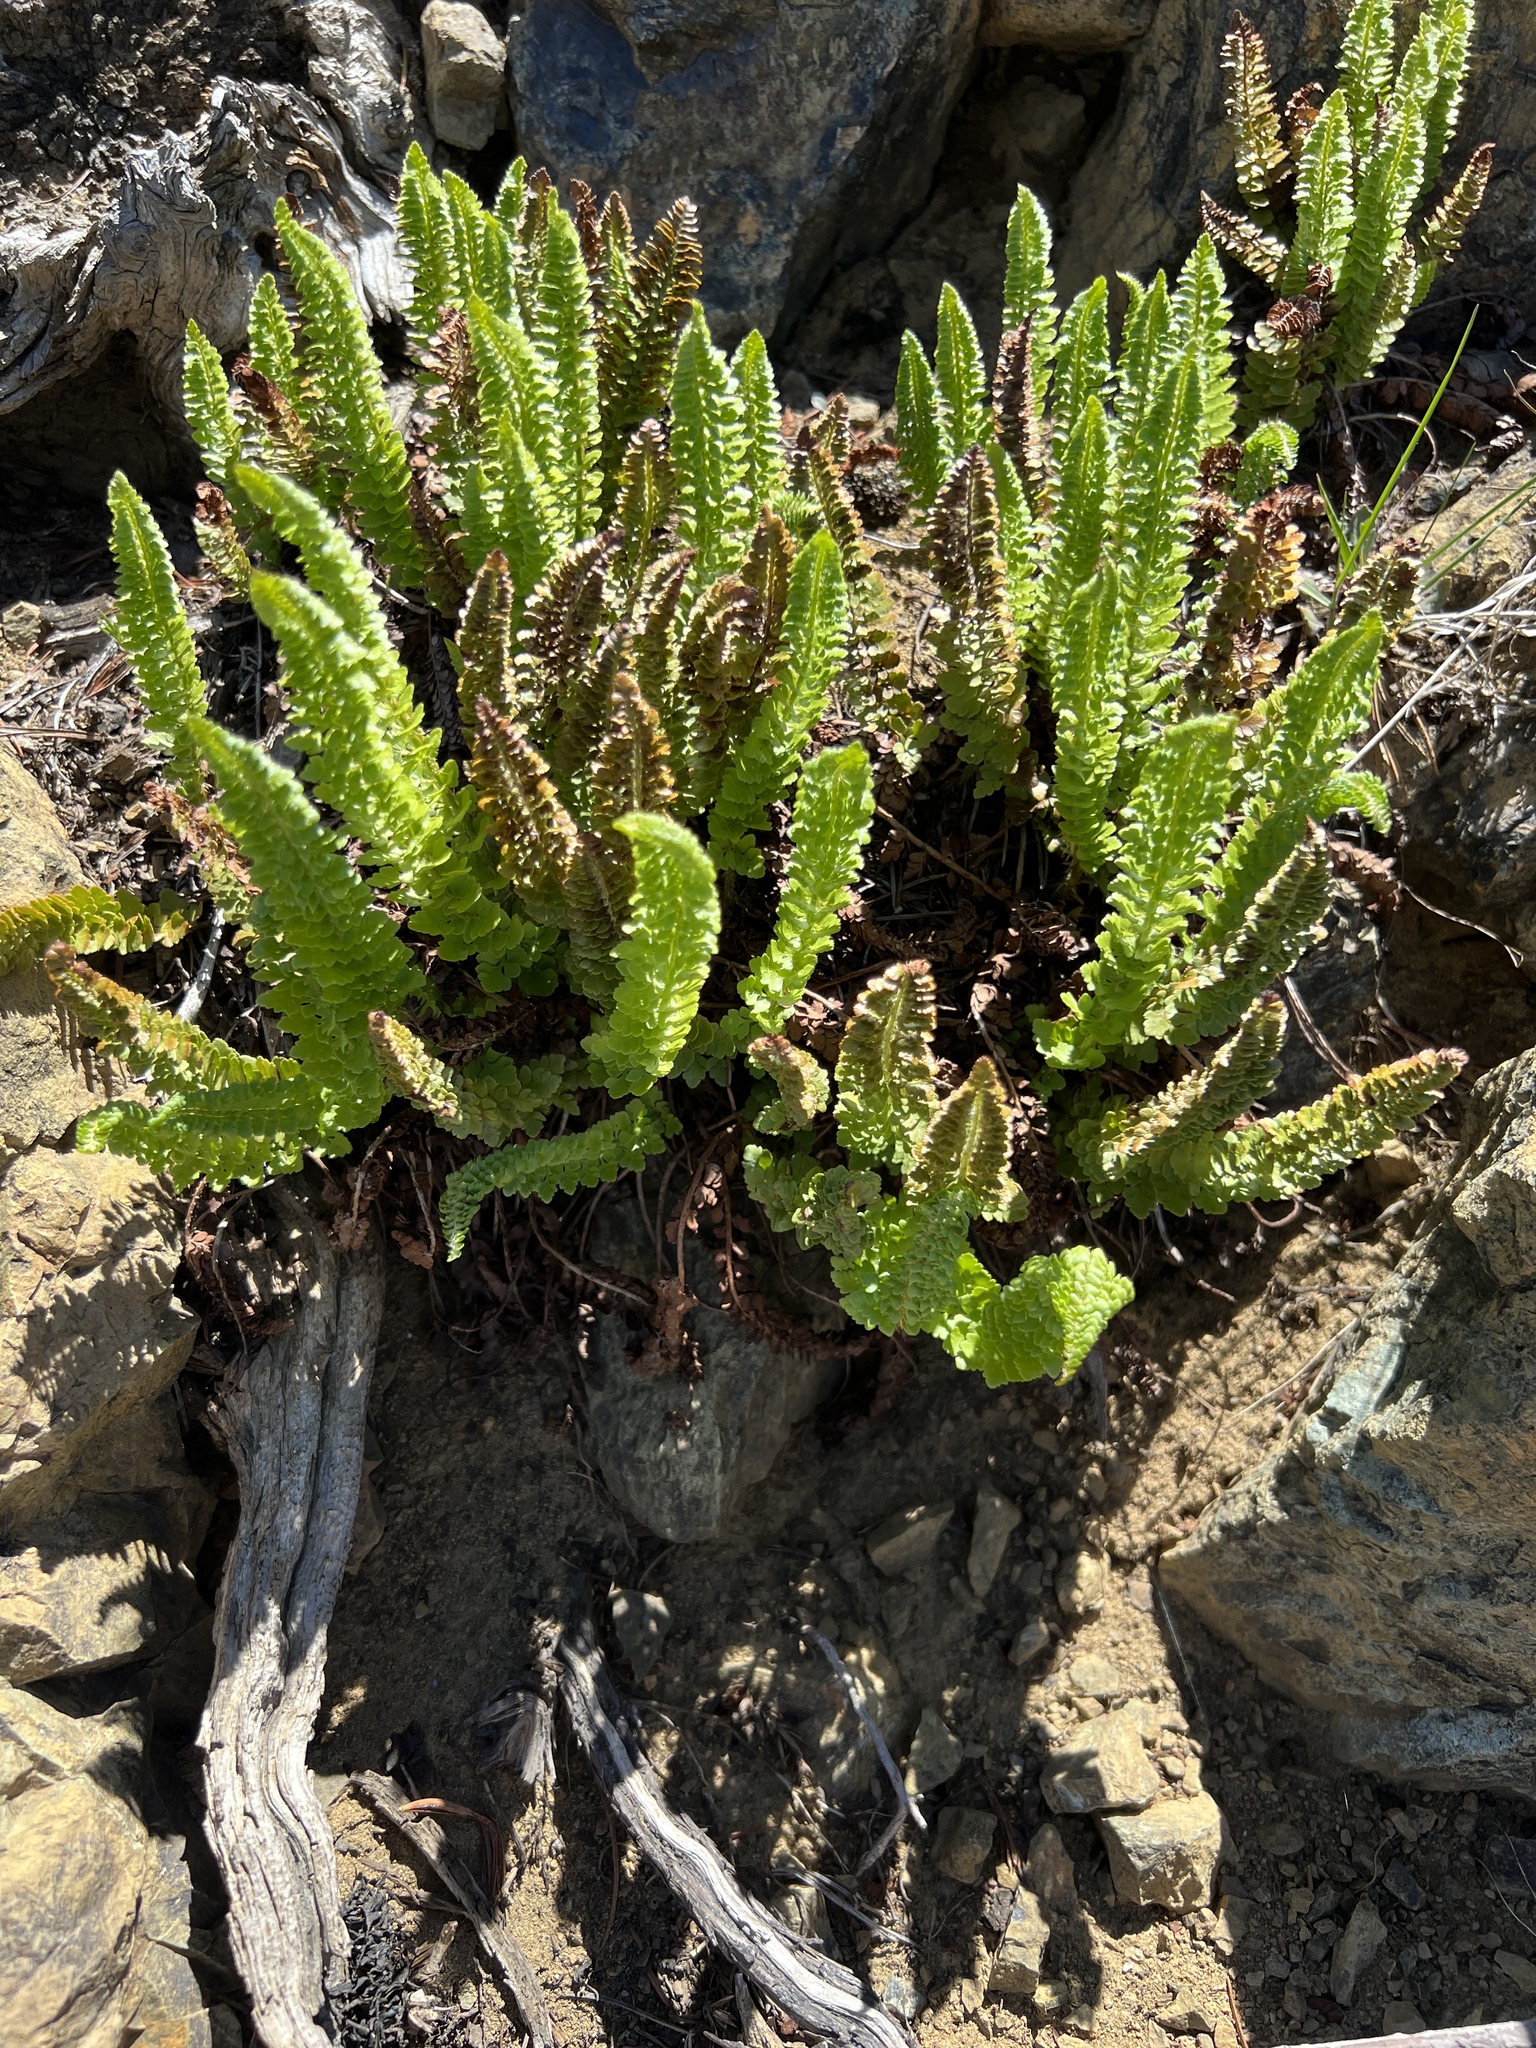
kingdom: Plantae
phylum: Tracheophyta
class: Polypodiopsida
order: Polypodiales
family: Dryopteridaceae
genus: Polystichum
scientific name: Polystichum lemmonii
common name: Lemmon's holly fern
